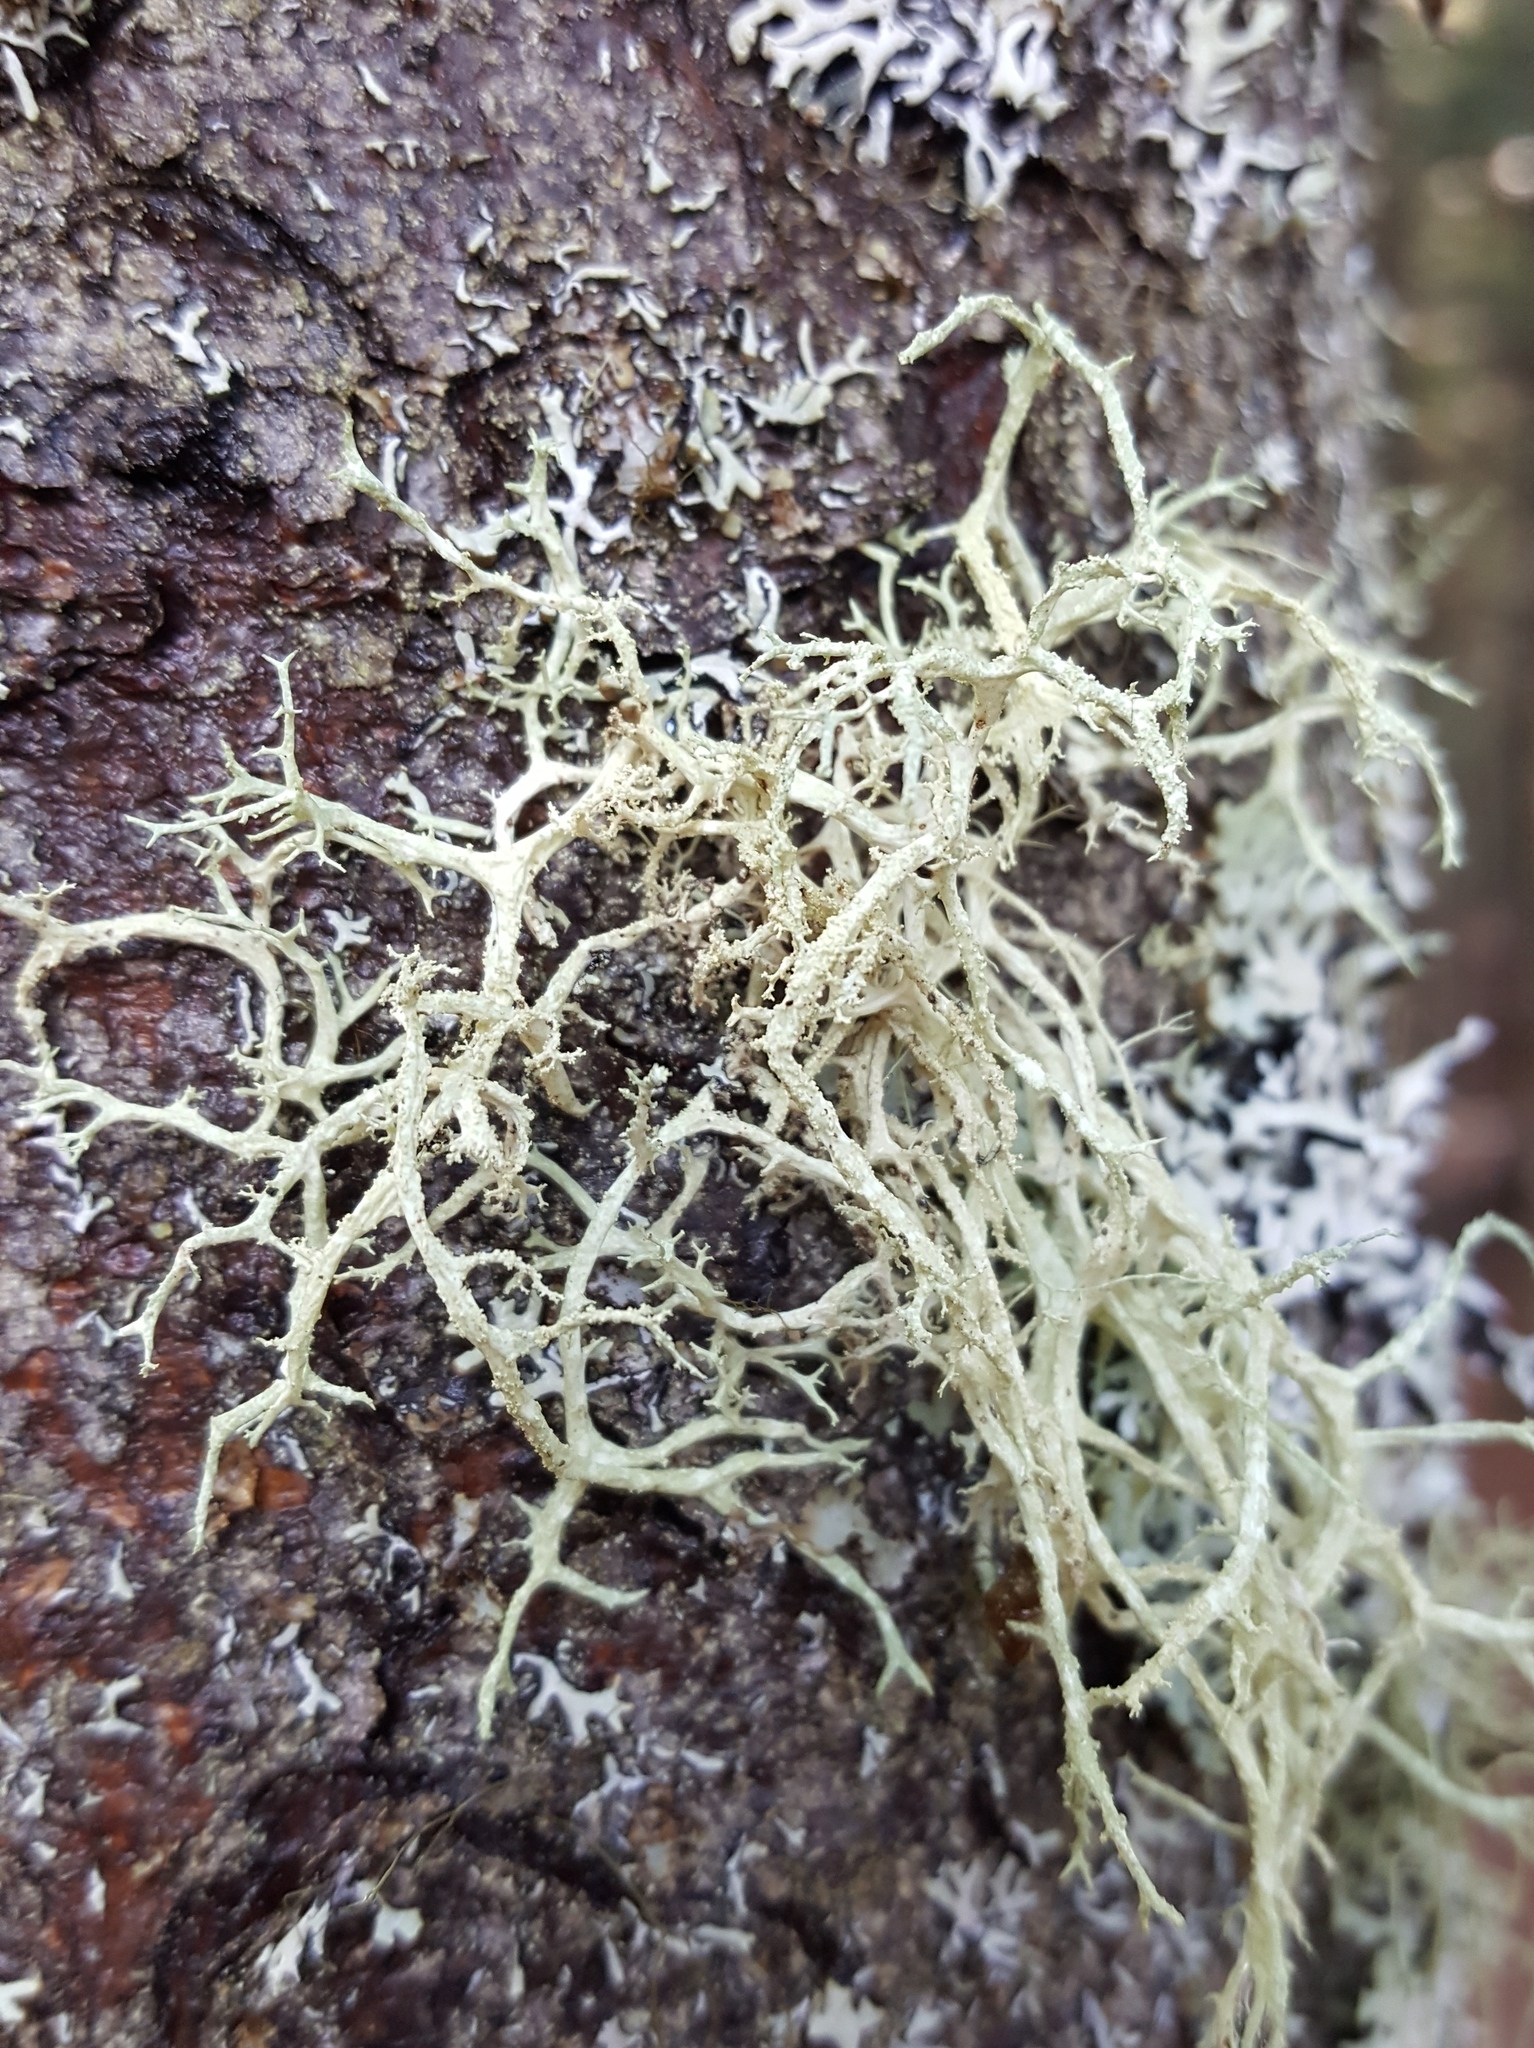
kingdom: Fungi
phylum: Ascomycota
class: Lecanoromycetes
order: Lecanorales
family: Parmeliaceae
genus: Evernia
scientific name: Evernia mesomorpha
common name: Boreal oak moss lichen
